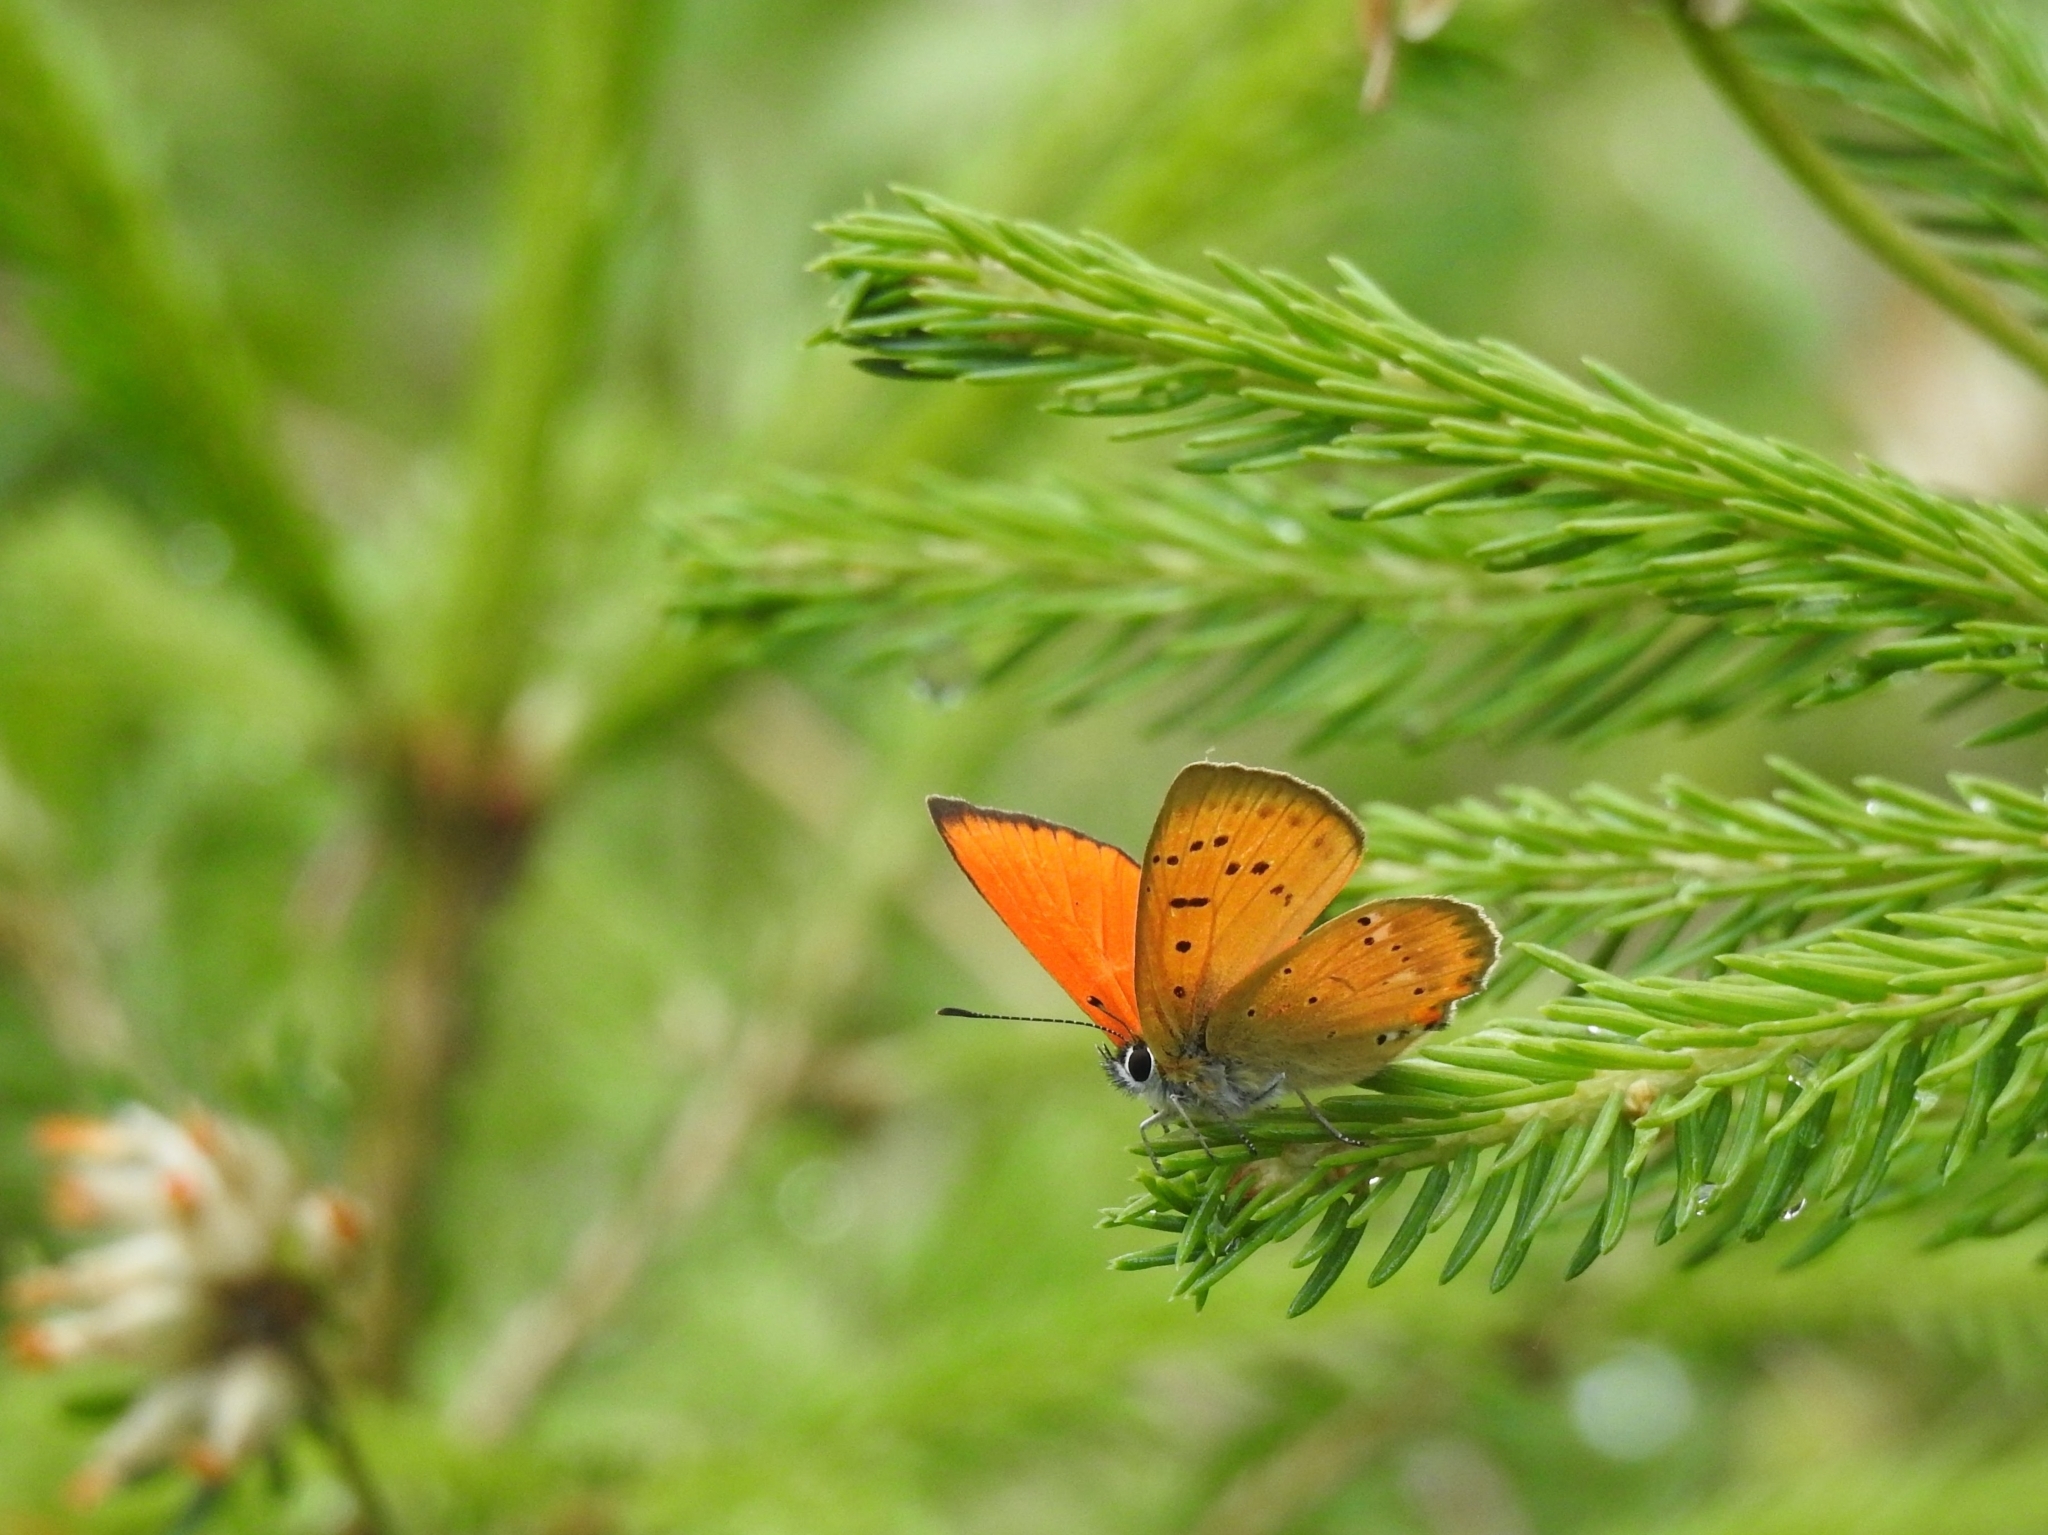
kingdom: Animalia
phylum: Arthropoda
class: Insecta
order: Lepidoptera
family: Lycaenidae
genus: Lycaena
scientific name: Lycaena virgaureae
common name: Scarce copper
